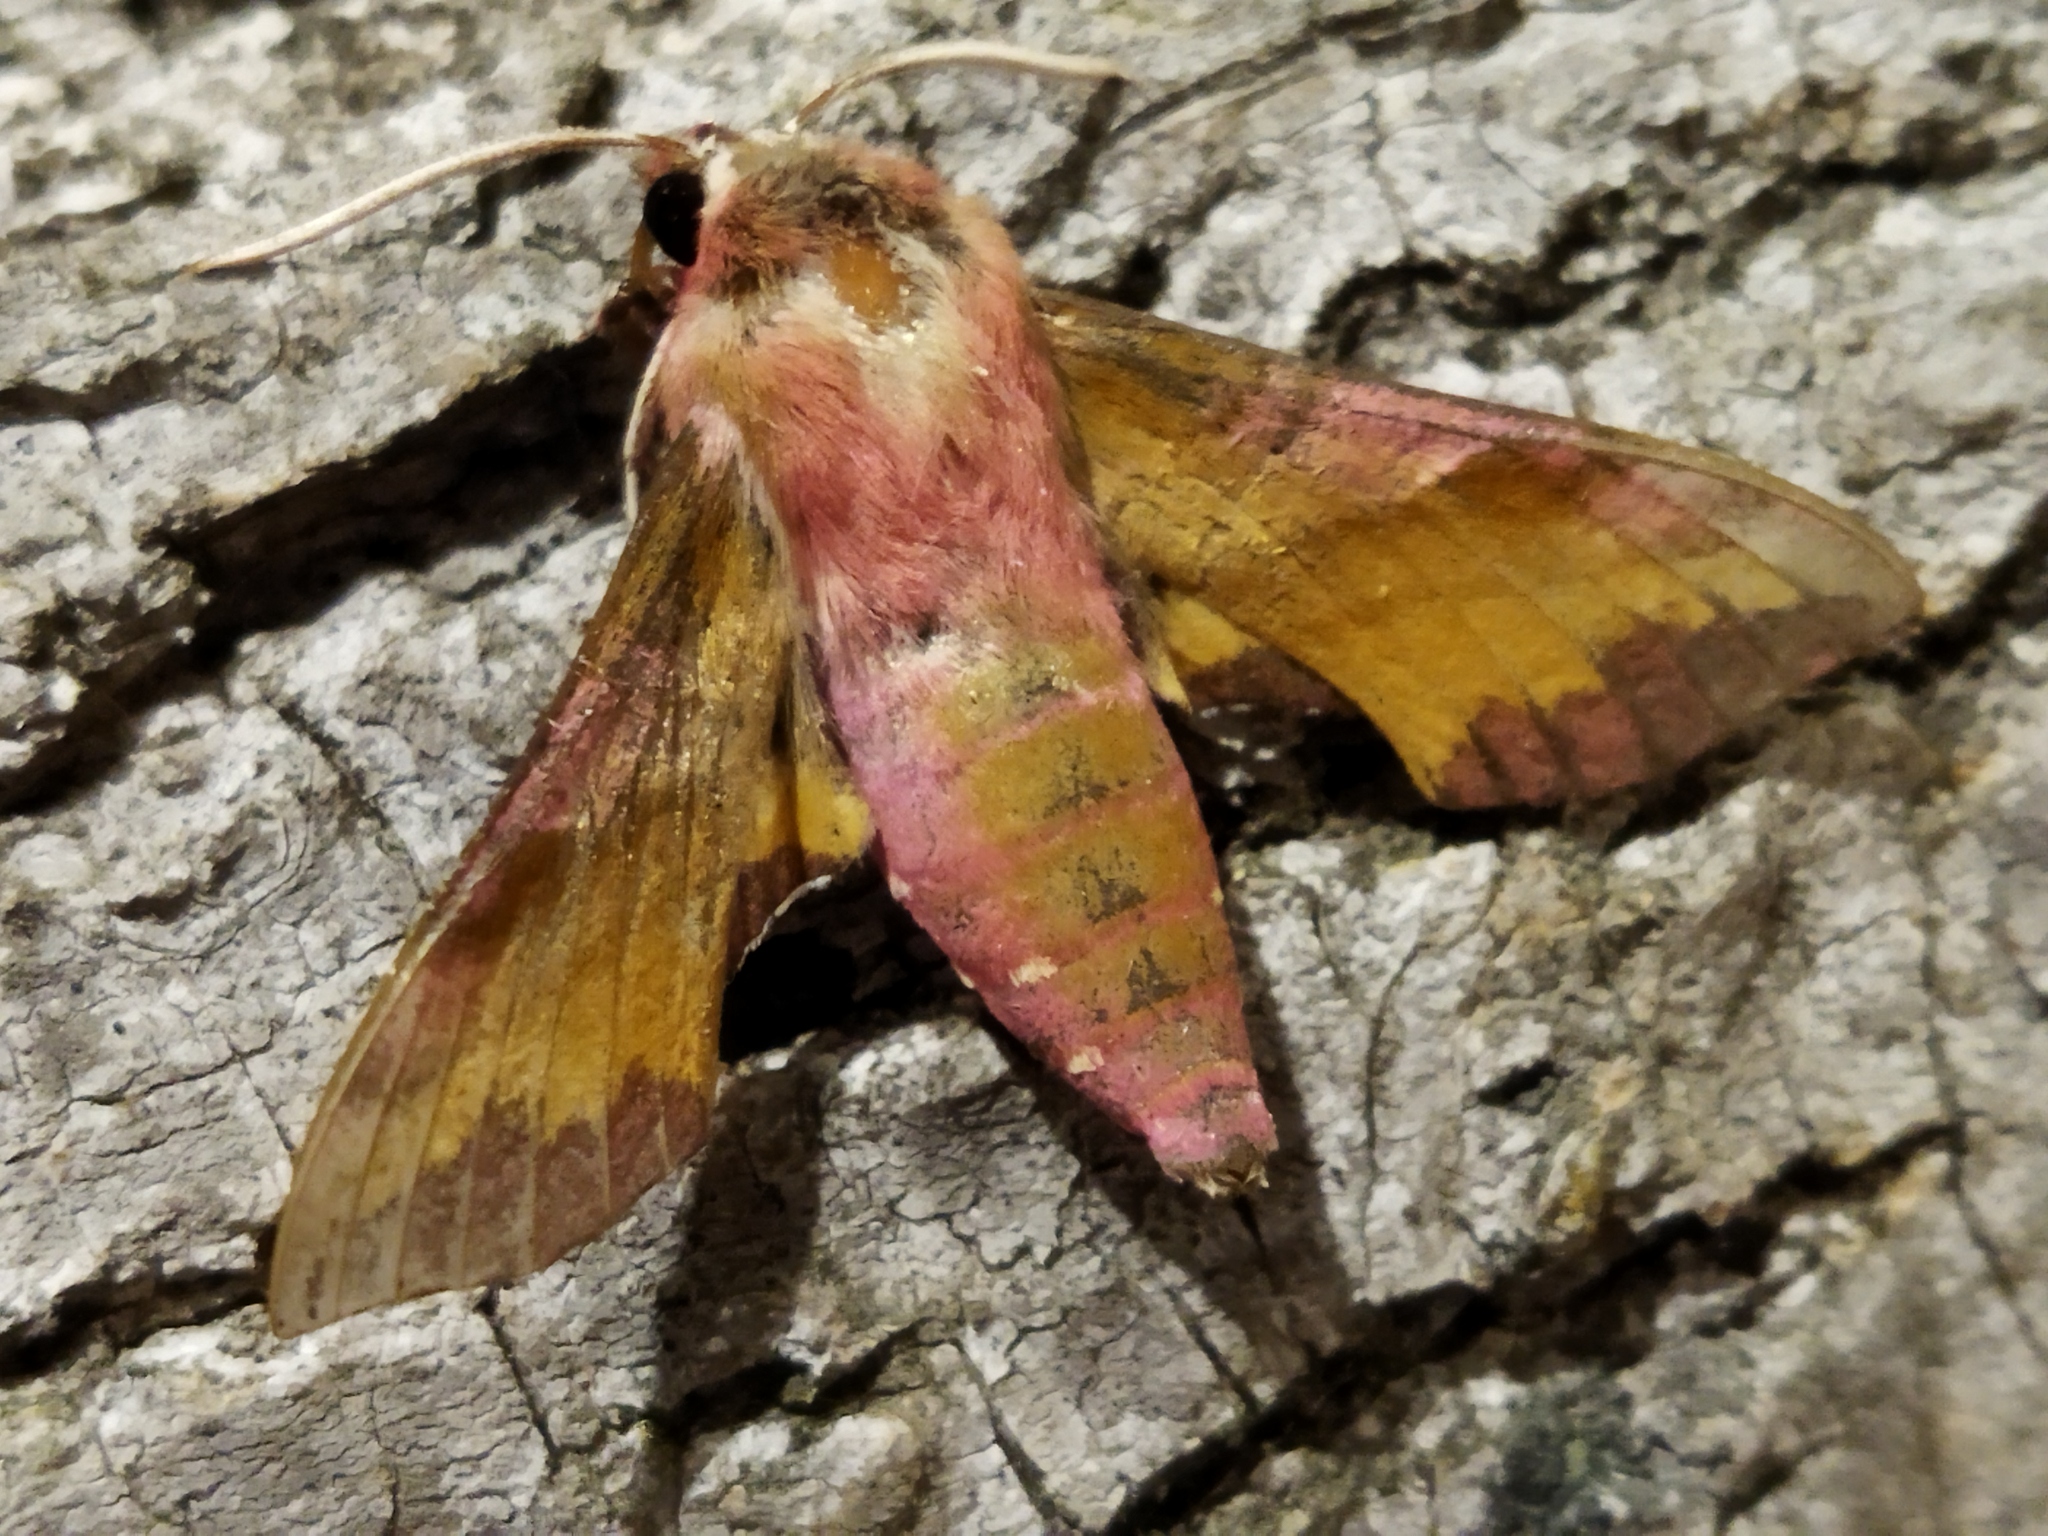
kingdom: Animalia
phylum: Arthropoda
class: Insecta
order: Lepidoptera
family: Sphingidae
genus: Deilephila
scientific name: Deilephila porcellus
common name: Small elephant hawk-moth
